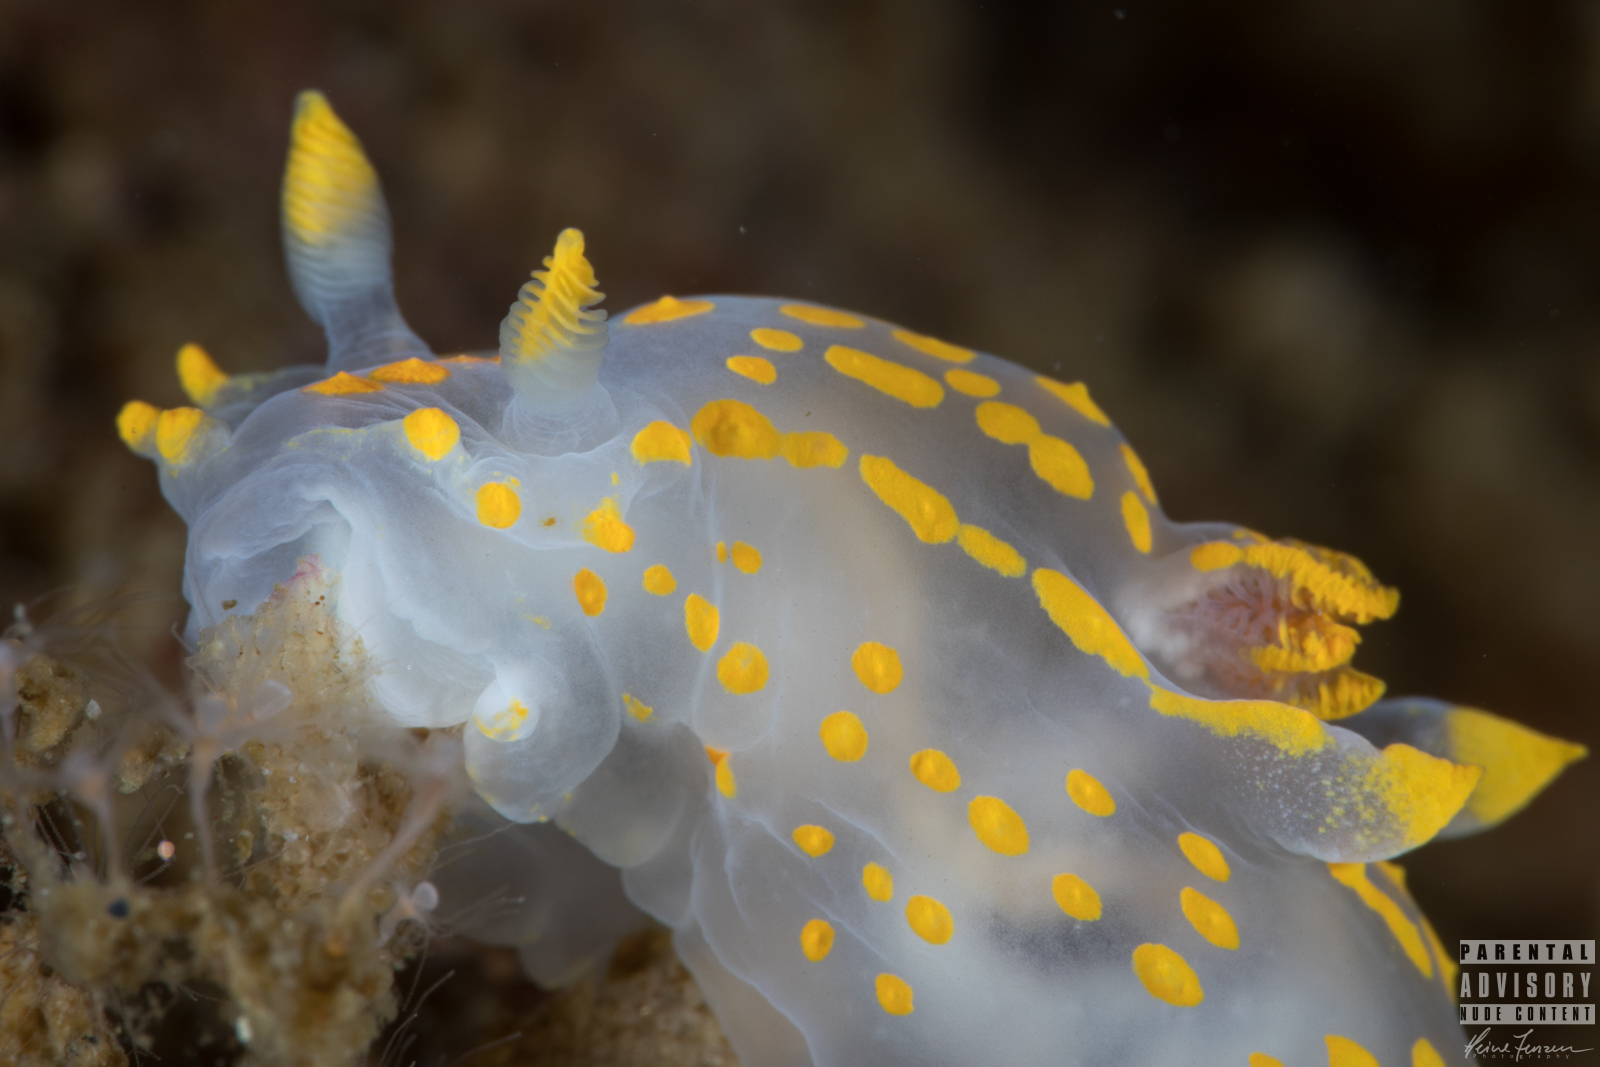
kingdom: Animalia
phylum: Mollusca
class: Gastropoda
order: Nudibranchia
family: Polyceridae
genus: Polycera
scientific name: Polycera quadrilineata
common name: Four-striped polycera
